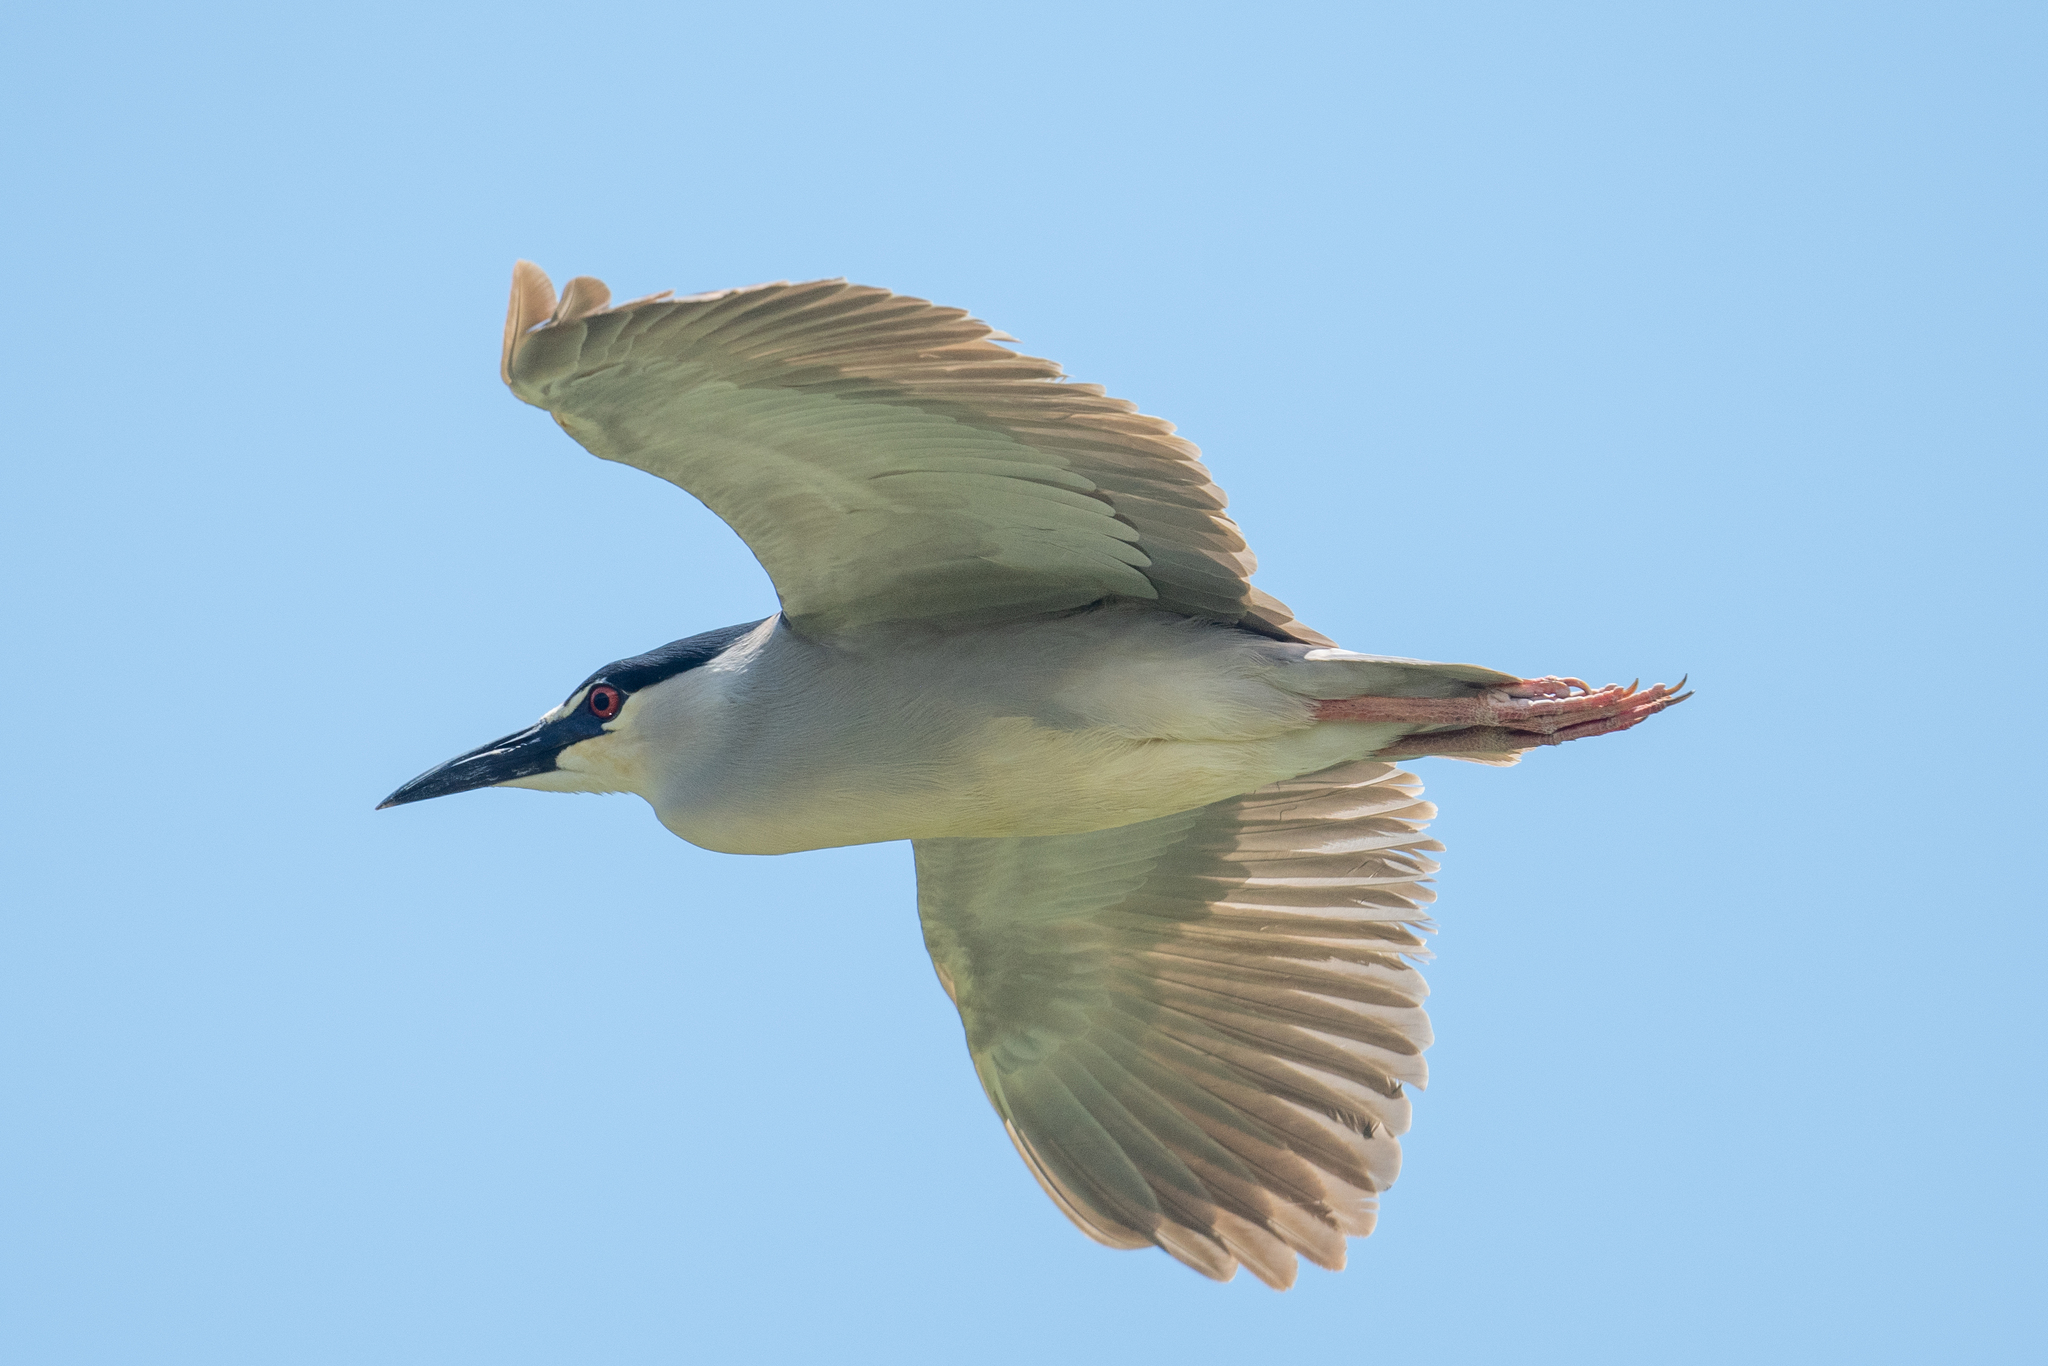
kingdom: Animalia
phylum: Chordata
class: Aves
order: Pelecaniformes
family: Ardeidae
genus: Nycticorax
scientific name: Nycticorax nycticorax
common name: Black-crowned night heron
